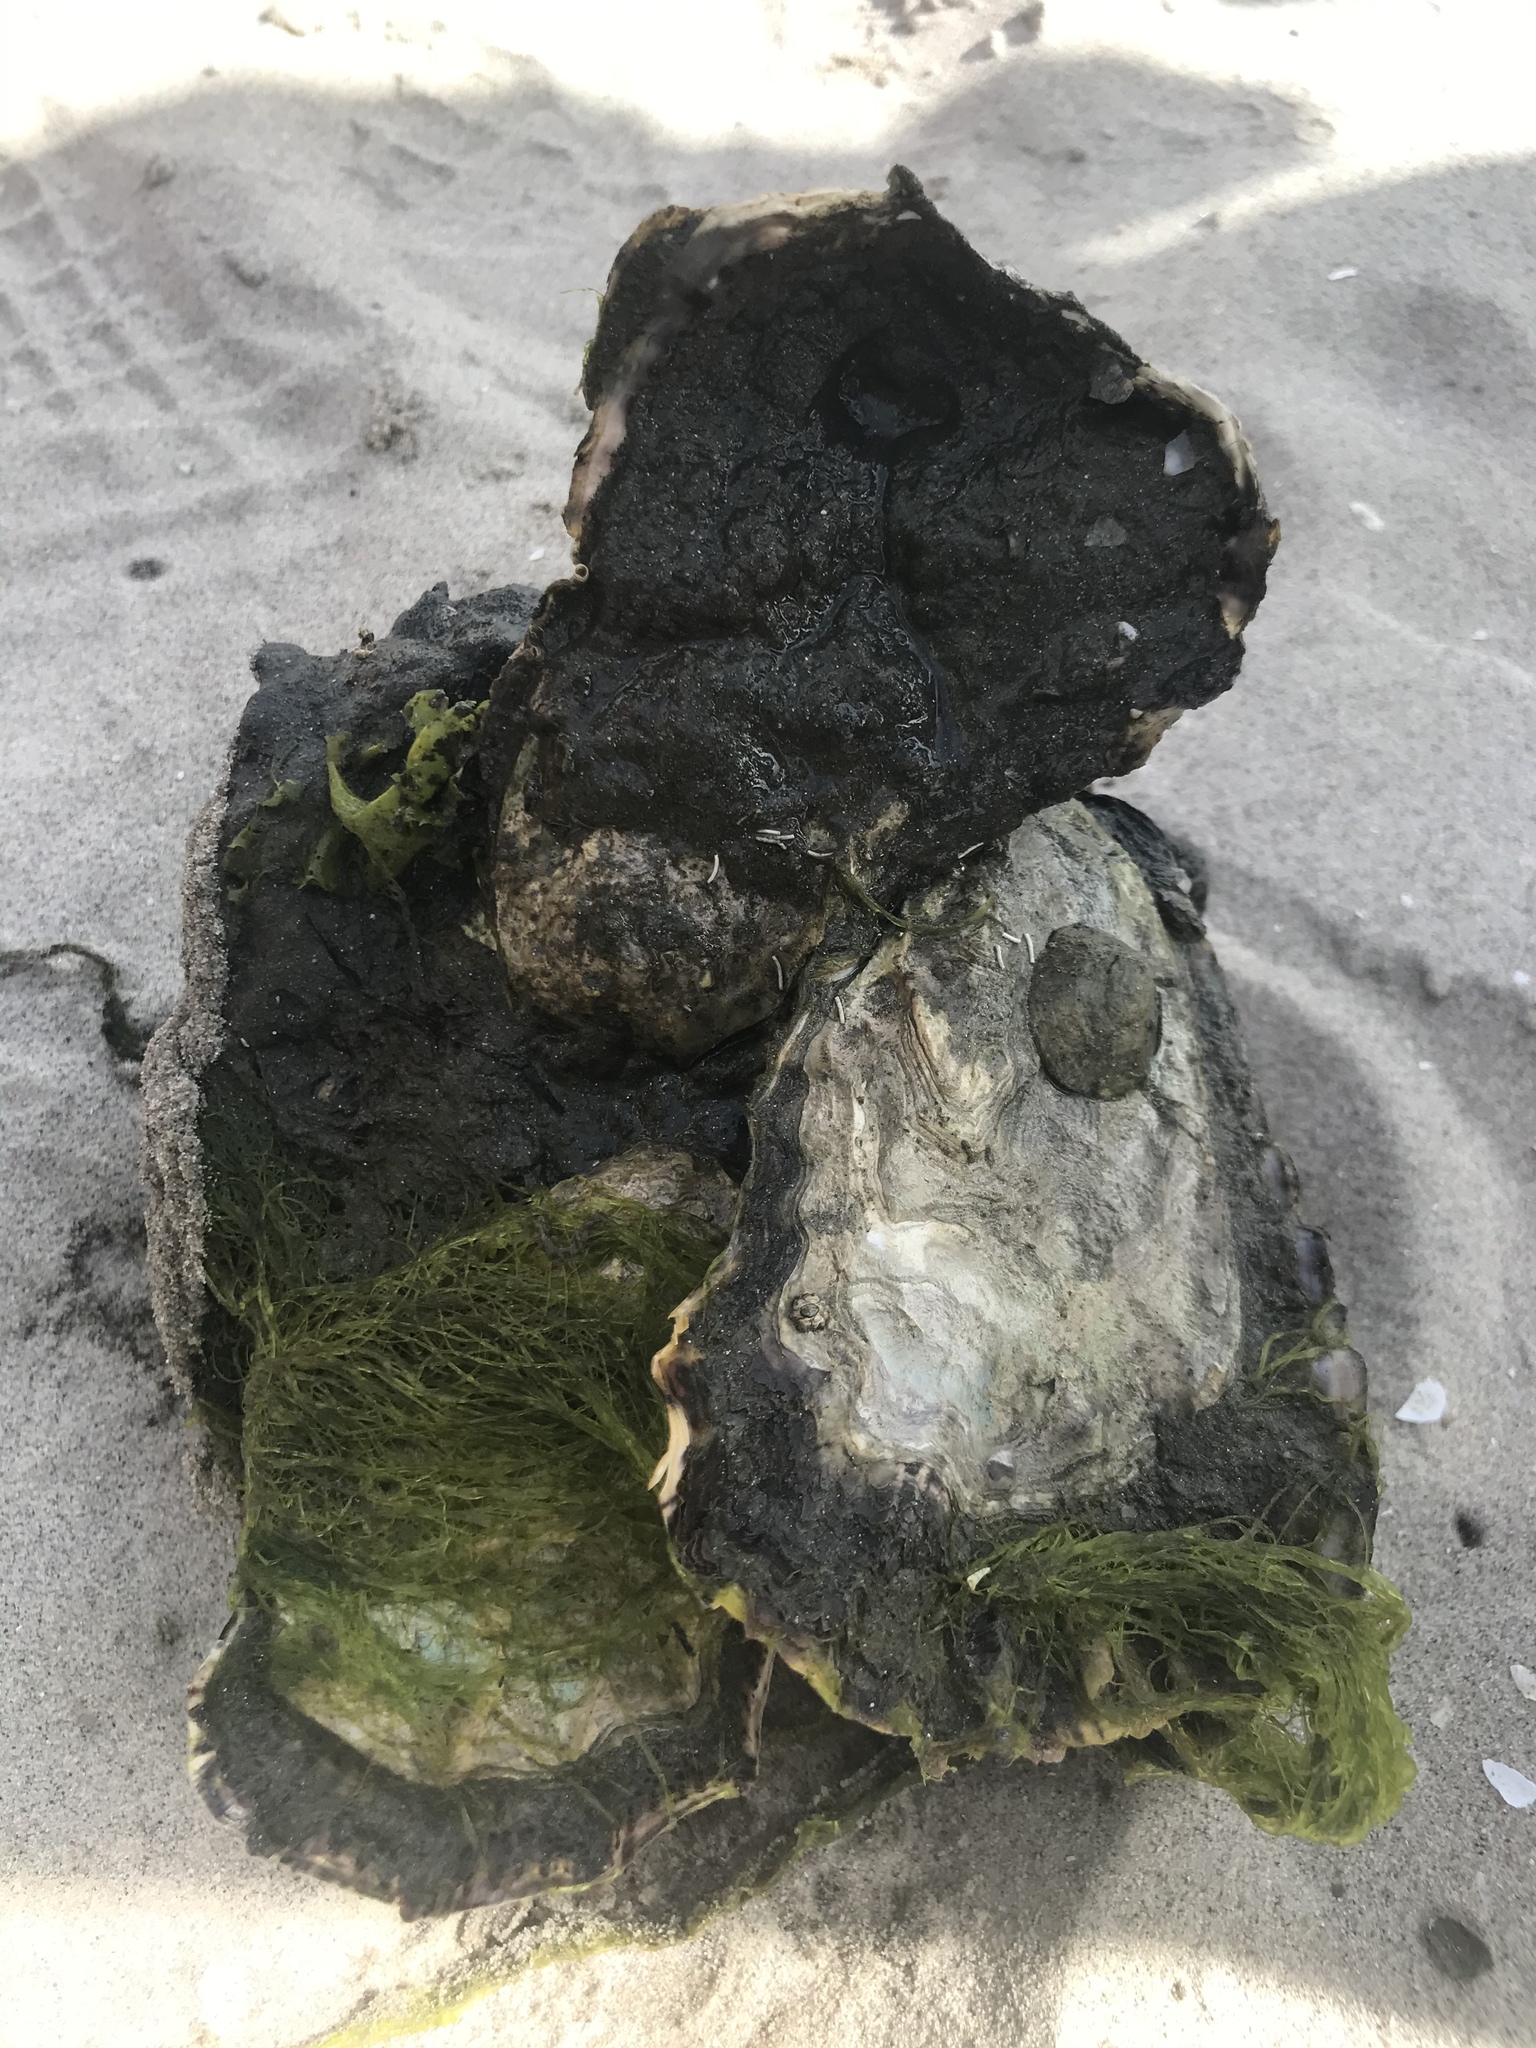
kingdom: Animalia
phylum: Mollusca
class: Bivalvia
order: Ostreida
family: Ostreidae
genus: Magallana
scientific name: Magallana gigas
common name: Pacific oyster
